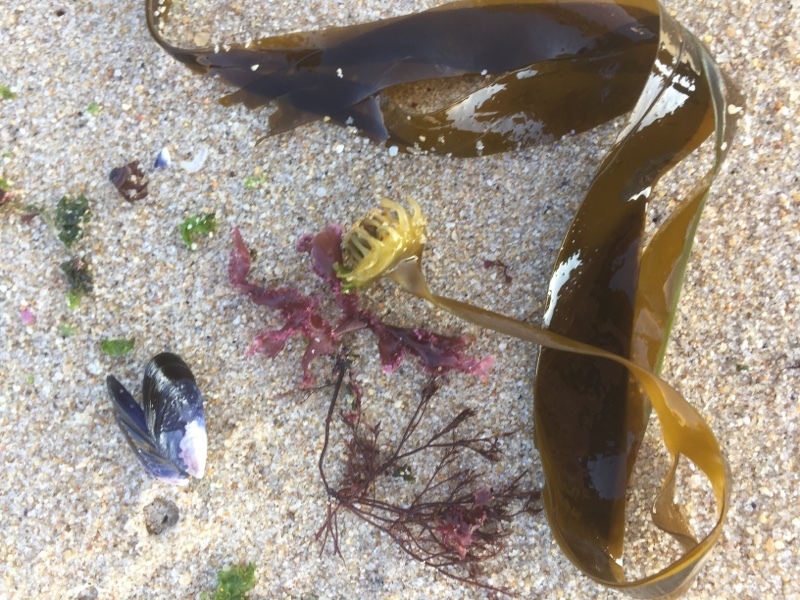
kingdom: Chromista
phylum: Ochrophyta
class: Phaeophyceae
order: Tilopteridales
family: Phyllariaceae
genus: Saccorhiza
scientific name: Saccorhiza polyschides
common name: Furbelows
